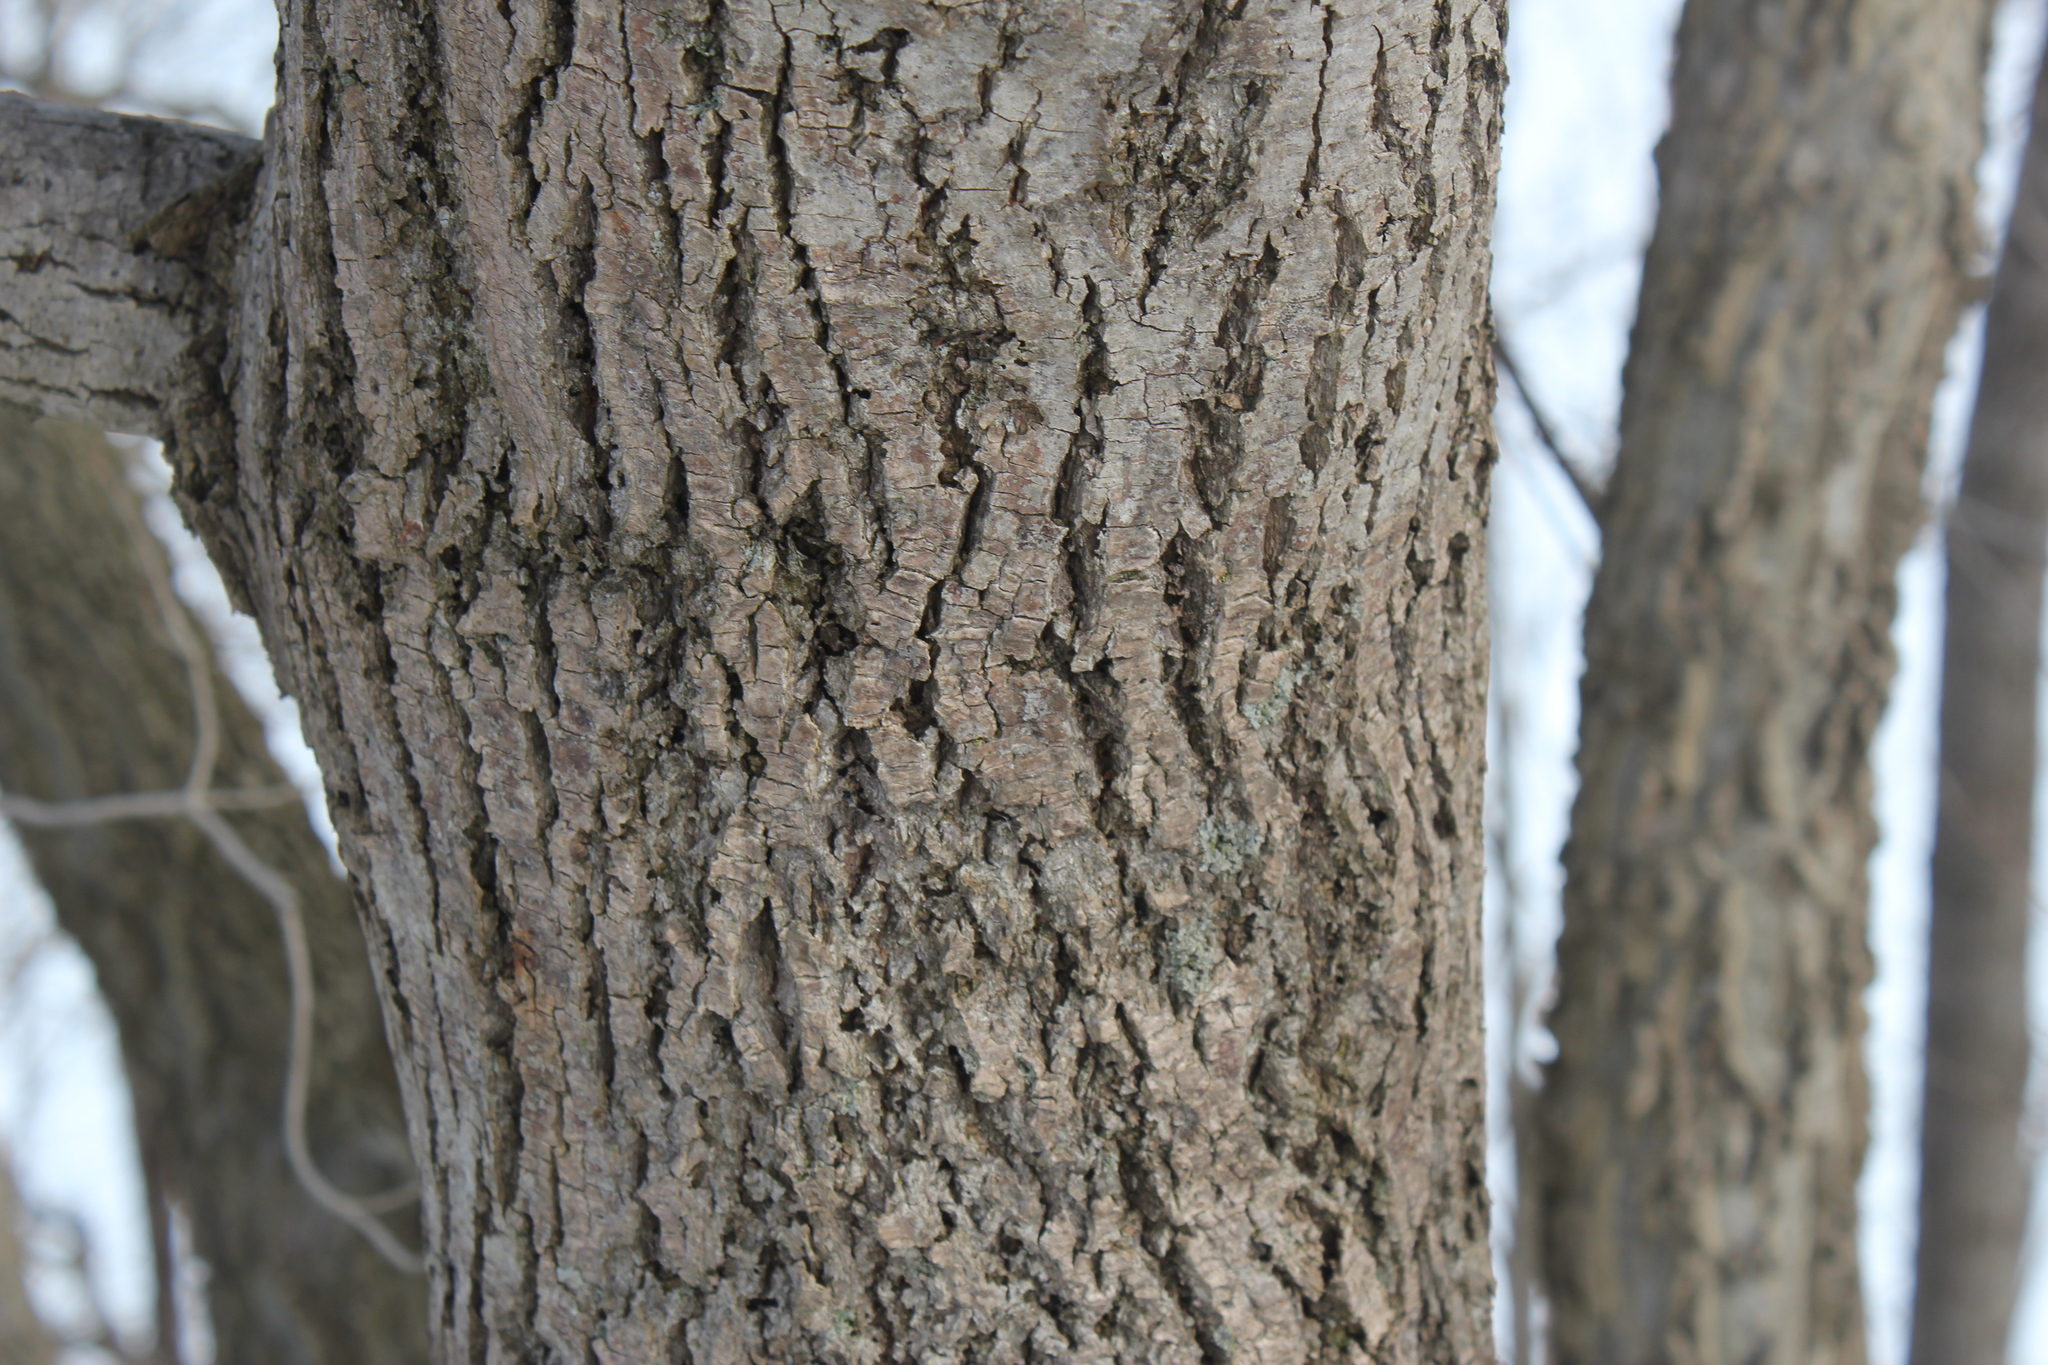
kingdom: Plantae
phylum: Tracheophyta
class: Magnoliopsida
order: Malvales
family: Malvaceae
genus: Tilia
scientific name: Tilia americana
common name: Basswood
